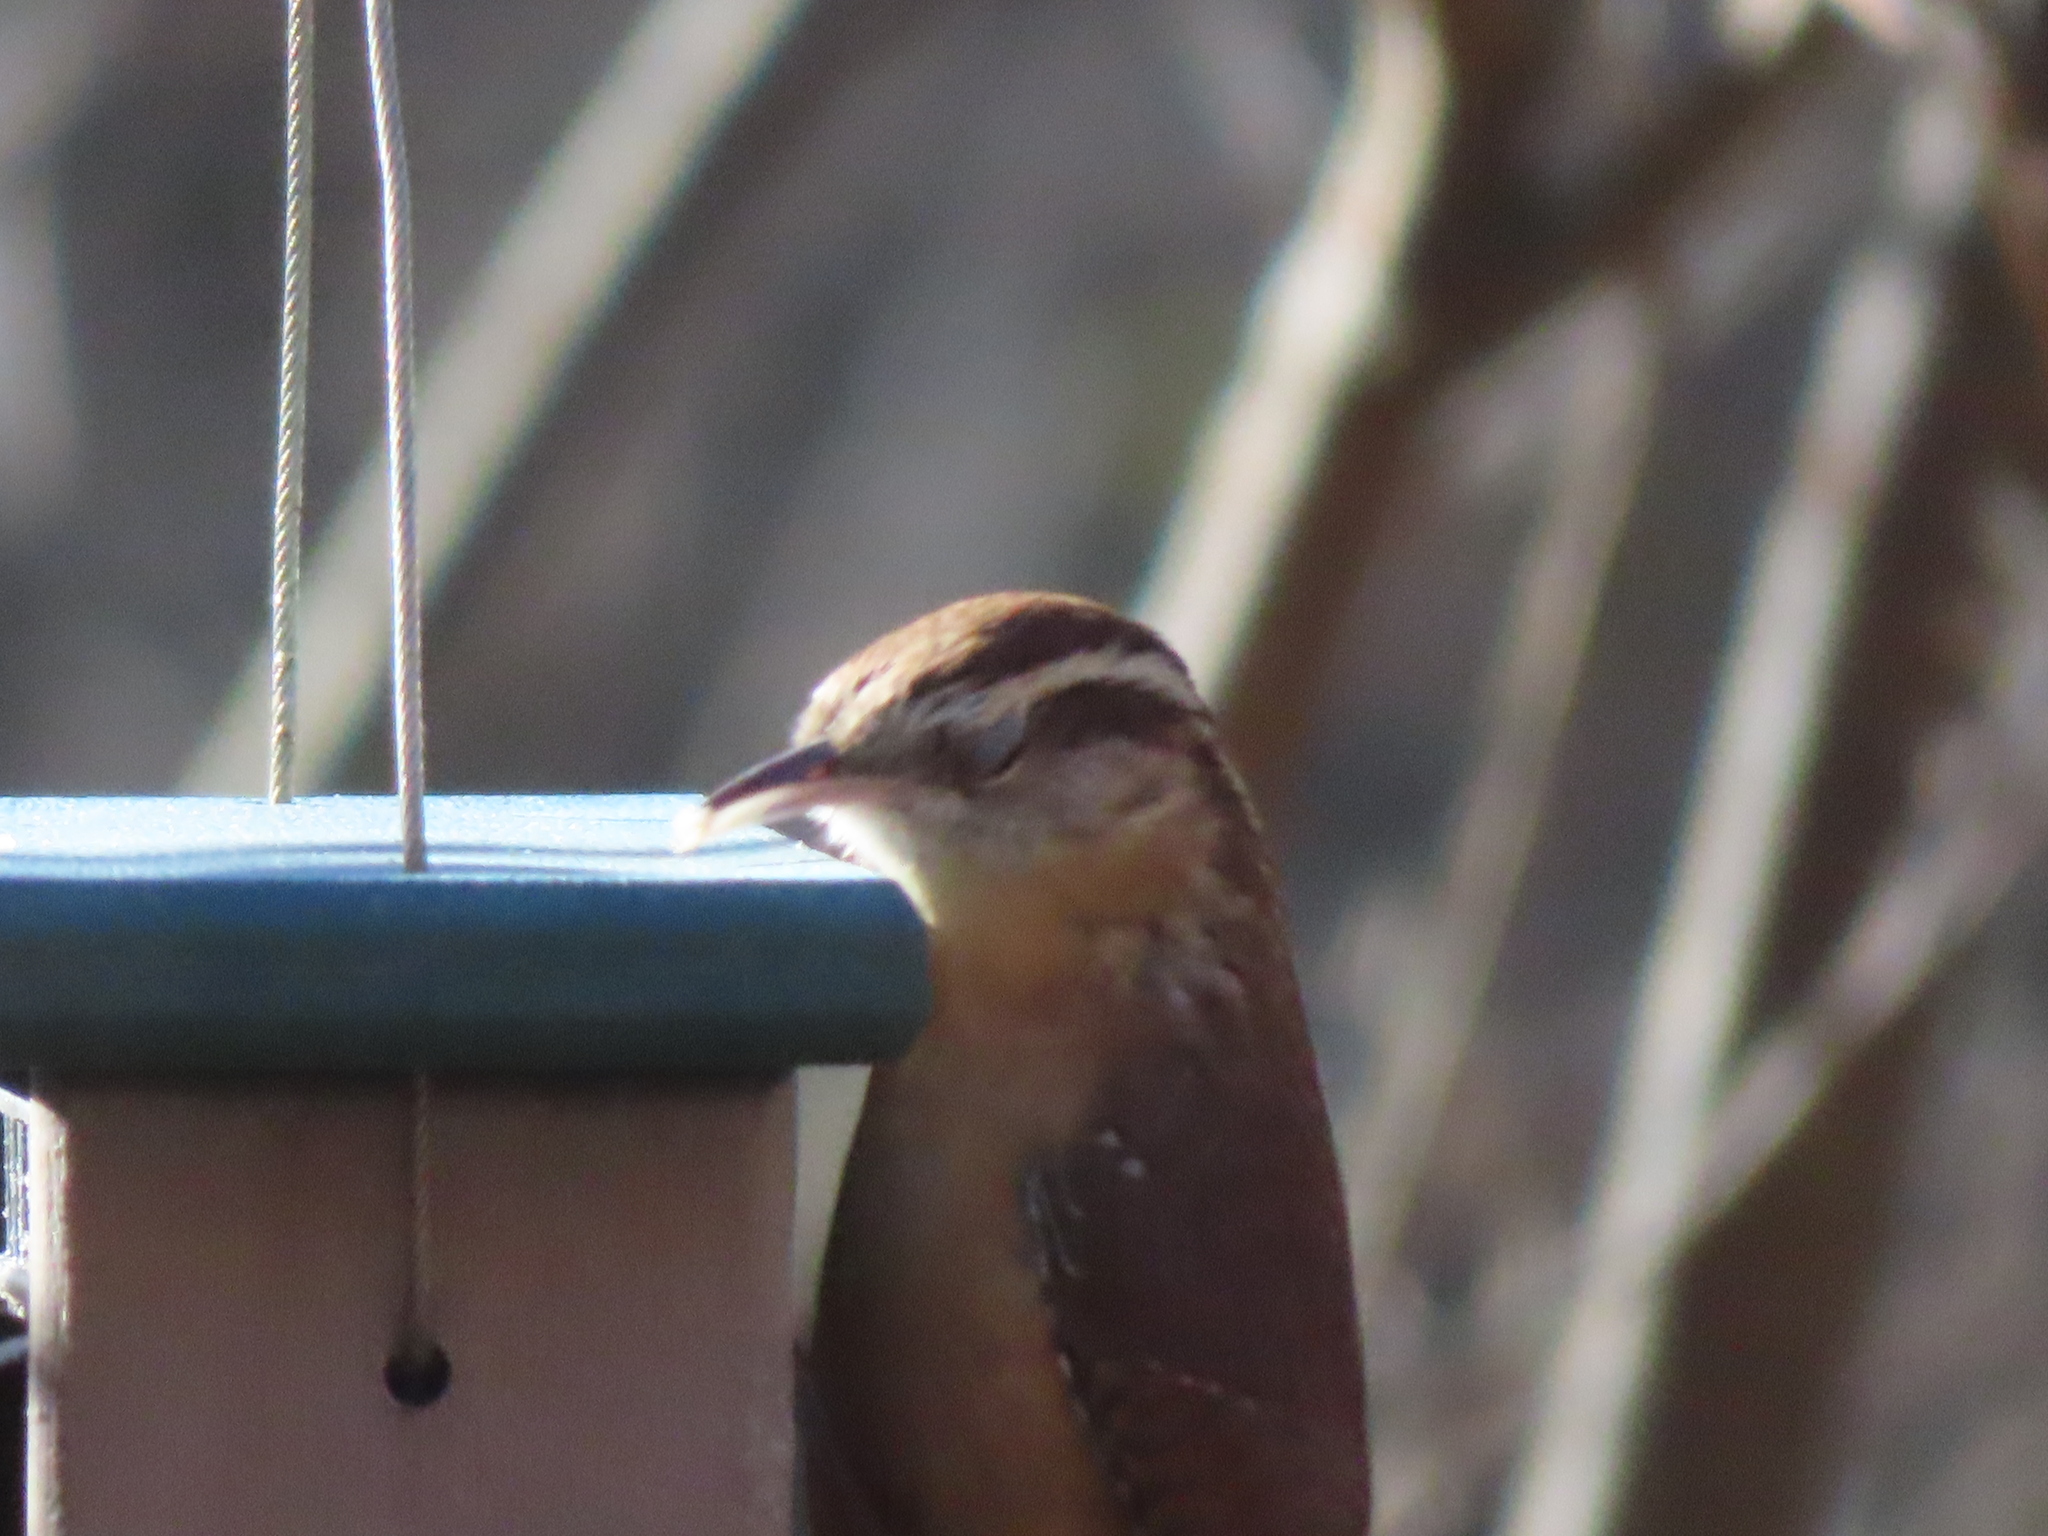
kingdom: Animalia
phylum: Chordata
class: Aves
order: Passeriformes
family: Troglodytidae
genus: Thryothorus
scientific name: Thryothorus ludovicianus
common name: Carolina wren
